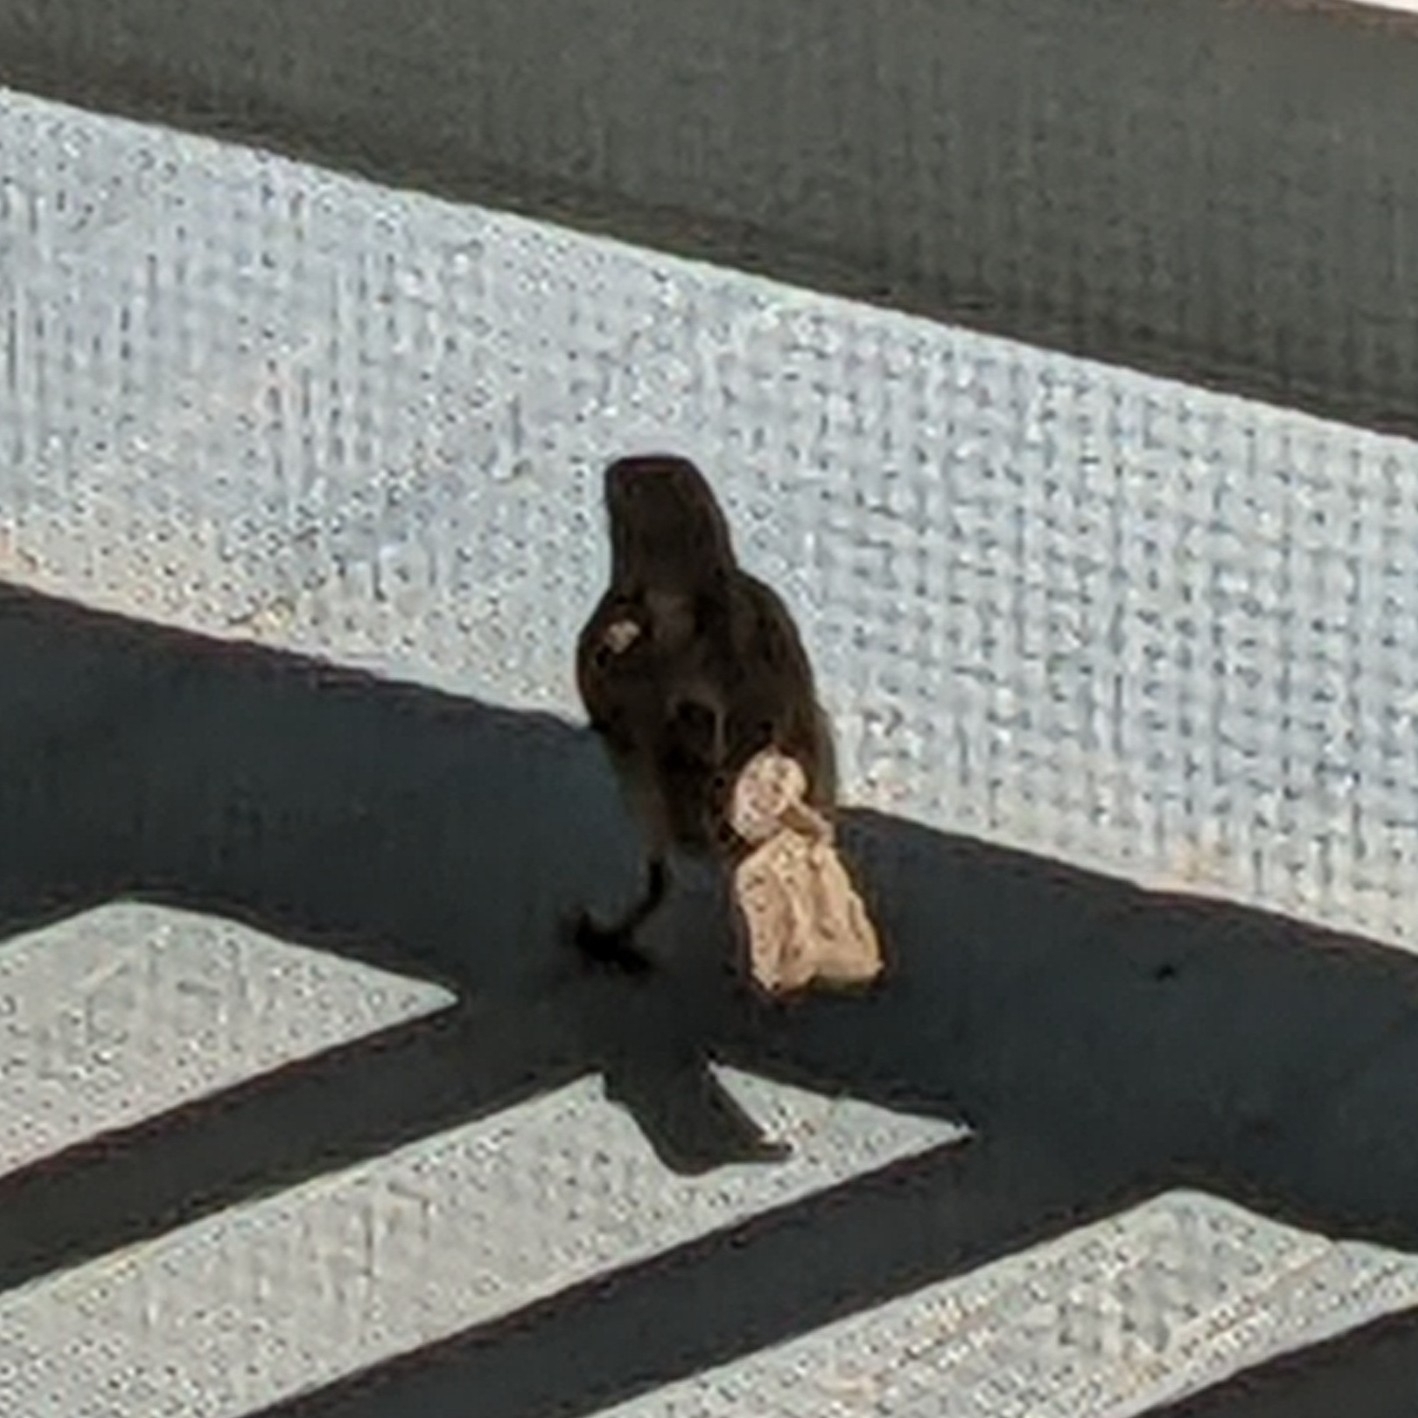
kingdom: Animalia
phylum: Chordata
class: Aves
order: Passeriformes
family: Passeridae
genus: Passer
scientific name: Passer domesticus
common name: House sparrow
